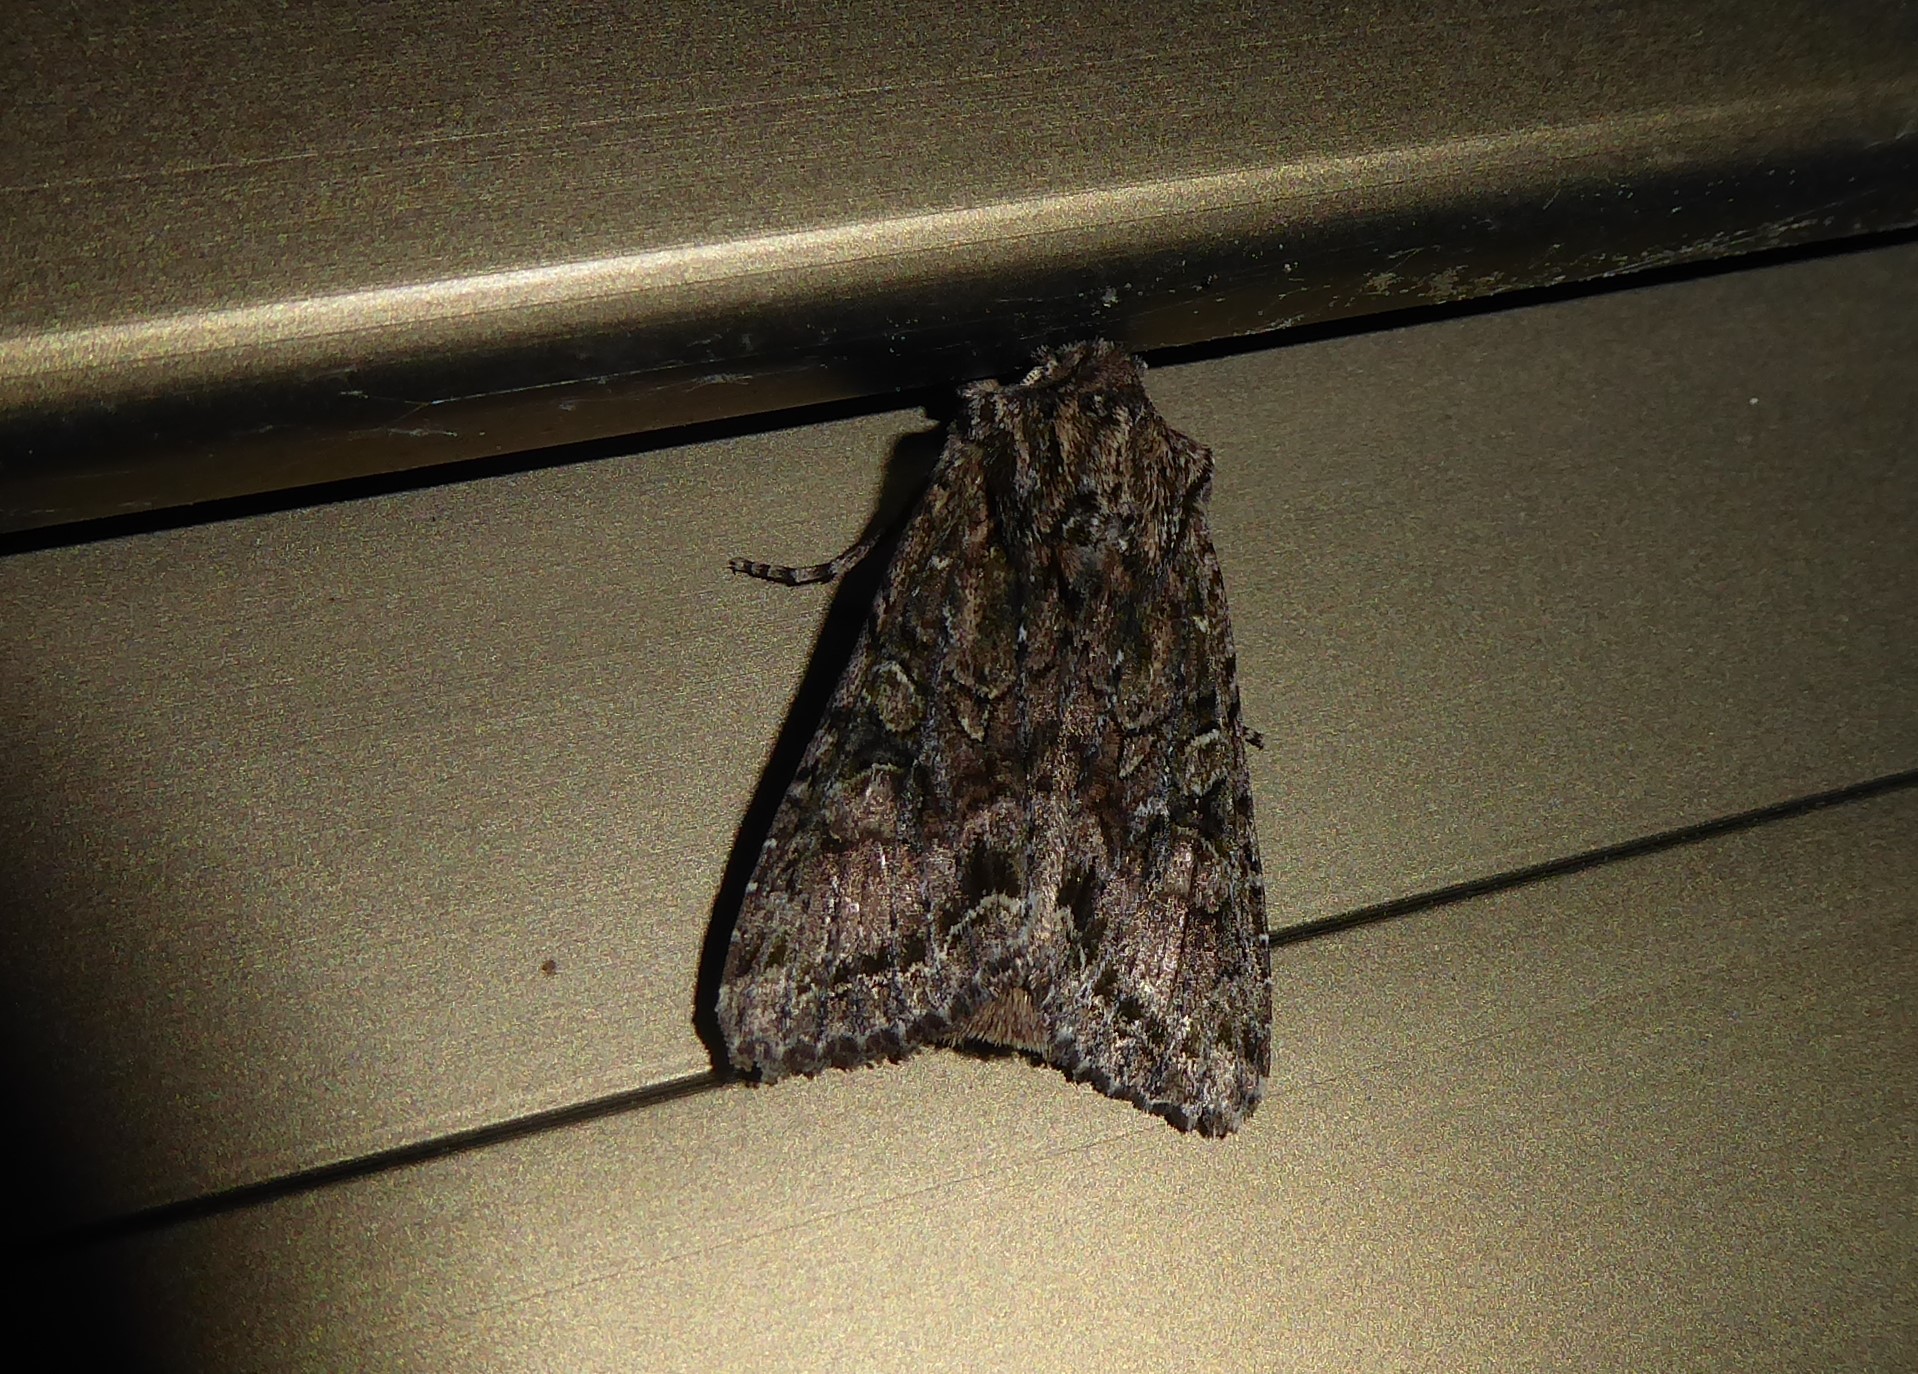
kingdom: Animalia
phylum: Arthropoda
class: Insecta
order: Lepidoptera
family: Noctuidae
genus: Ichneutica
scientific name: Ichneutica mutans
